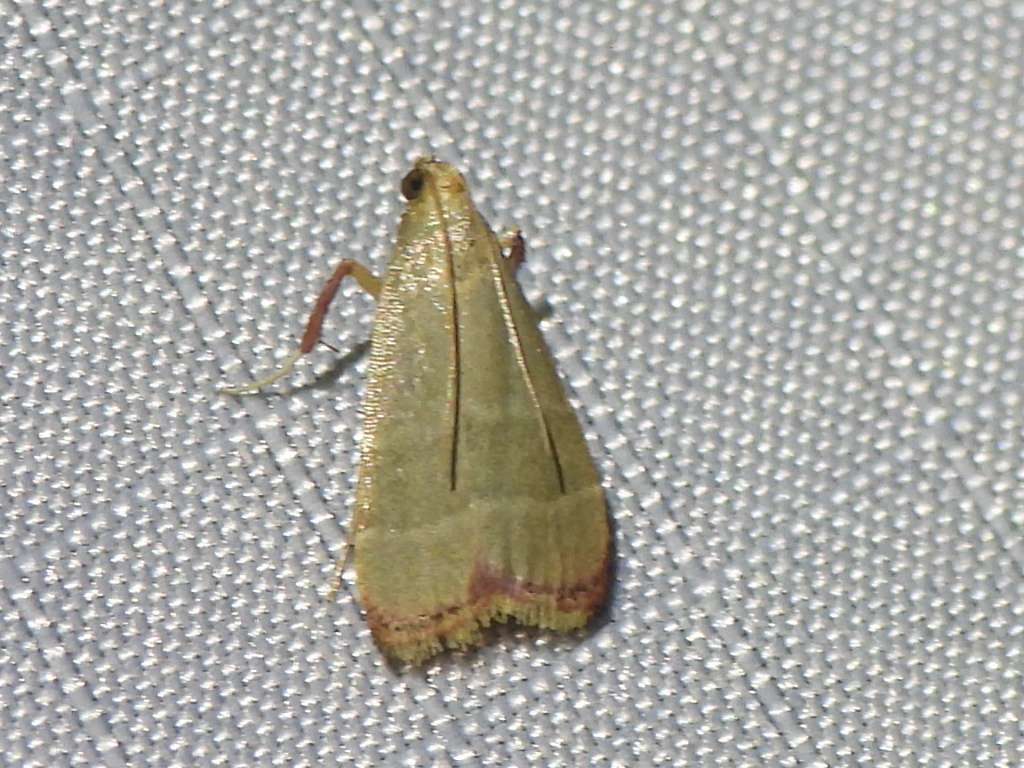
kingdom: Animalia
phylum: Arthropoda
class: Insecta
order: Lepidoptera
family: Pyralidae
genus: Arta
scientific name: Arta olivalis
